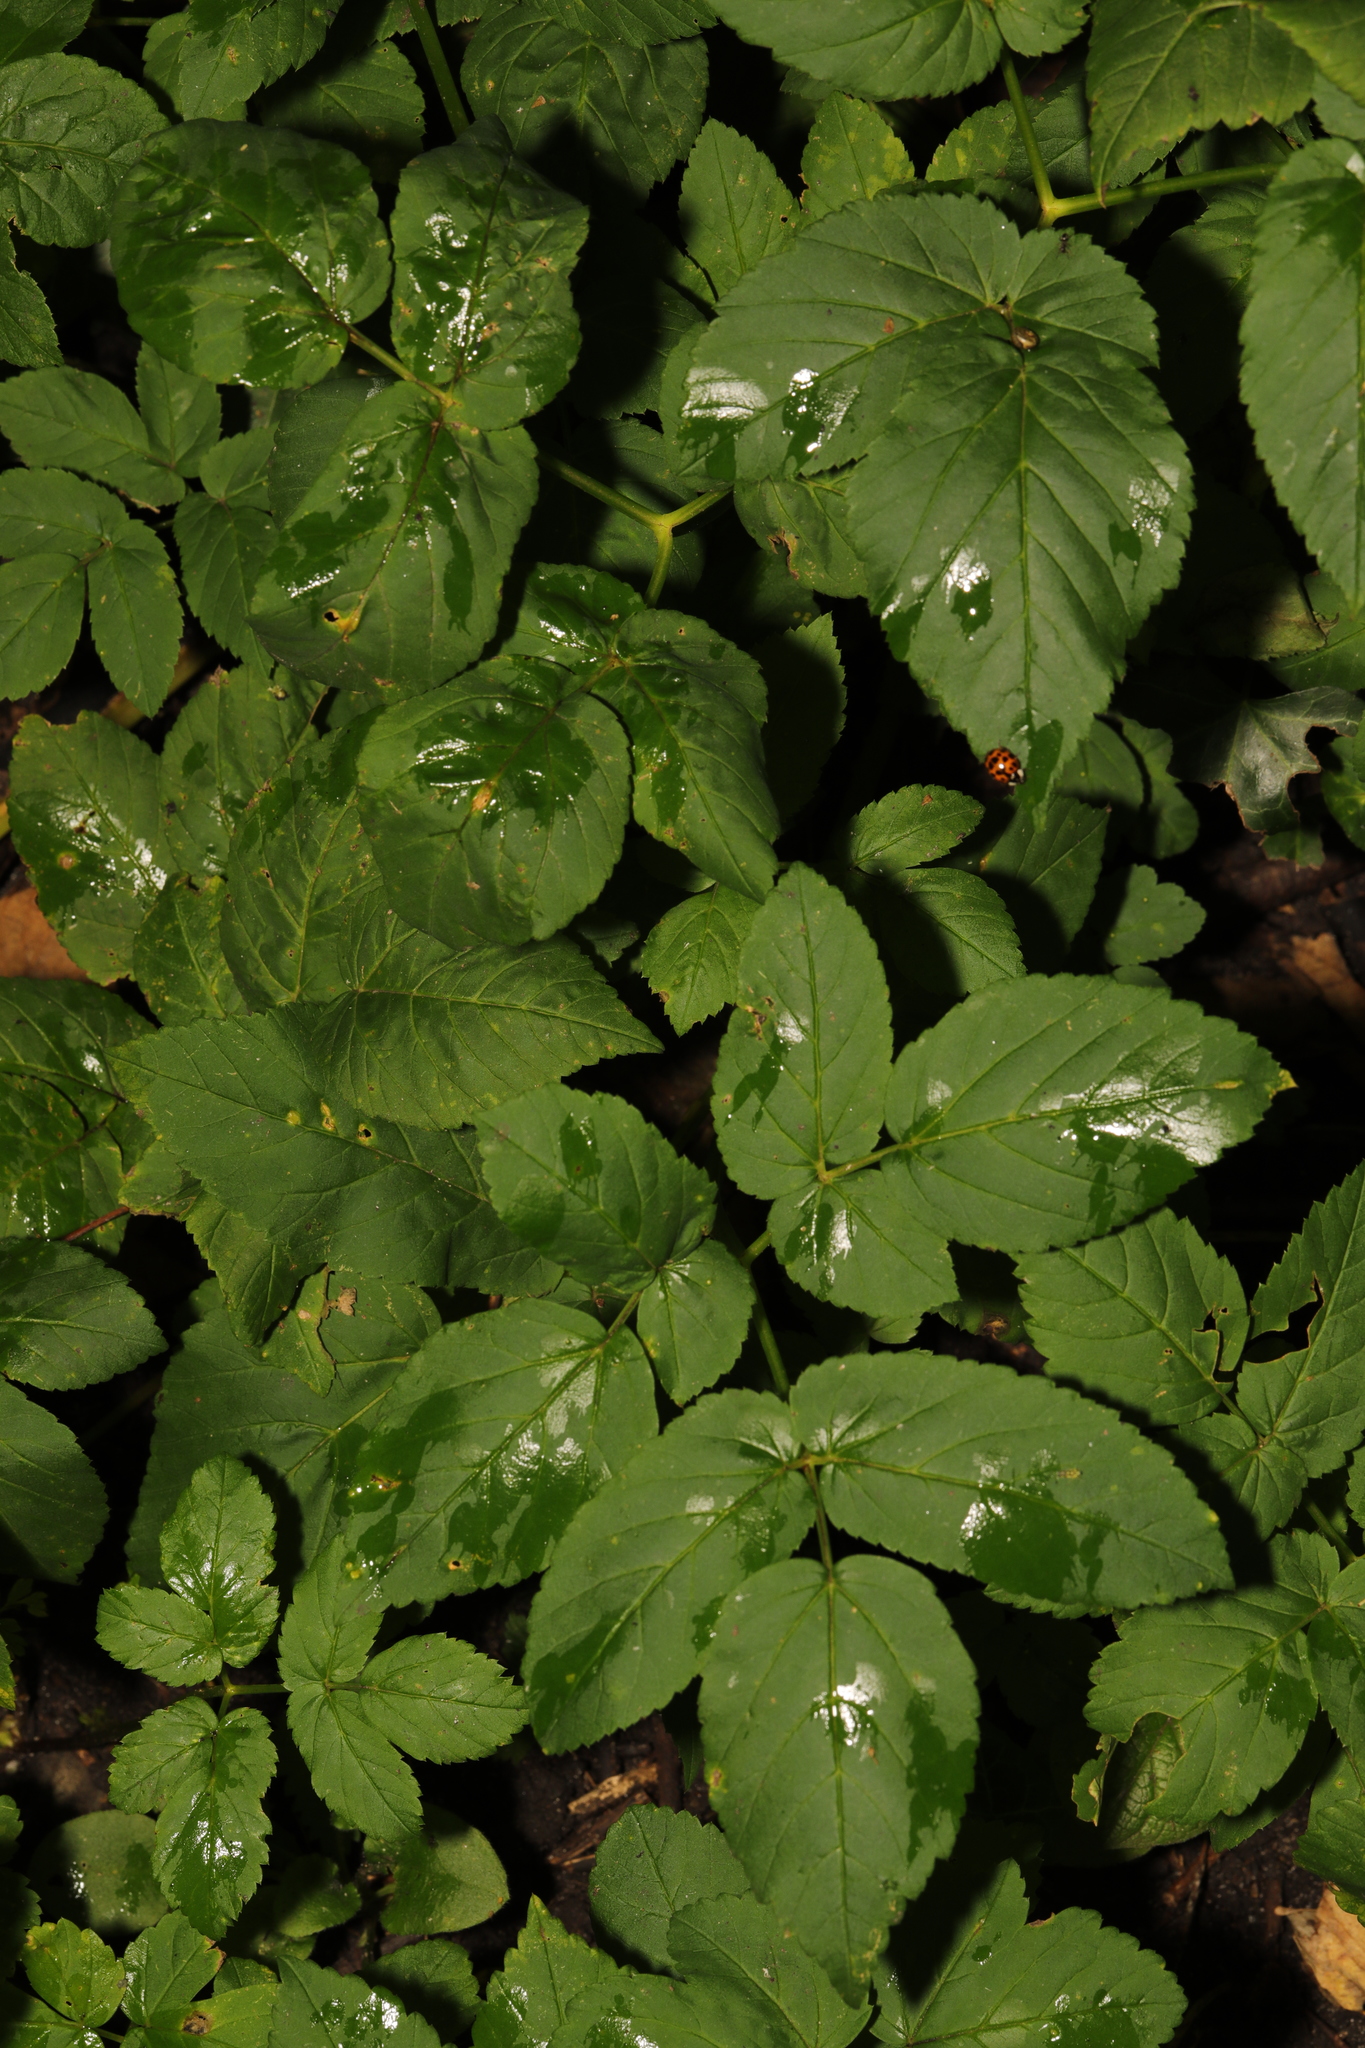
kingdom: Plantae
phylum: Tracheophyta
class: Magnoliopsida
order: Apiales
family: Apiaceae
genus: Aegopodium
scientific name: Aegopodium podagraria
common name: Ground-elder
